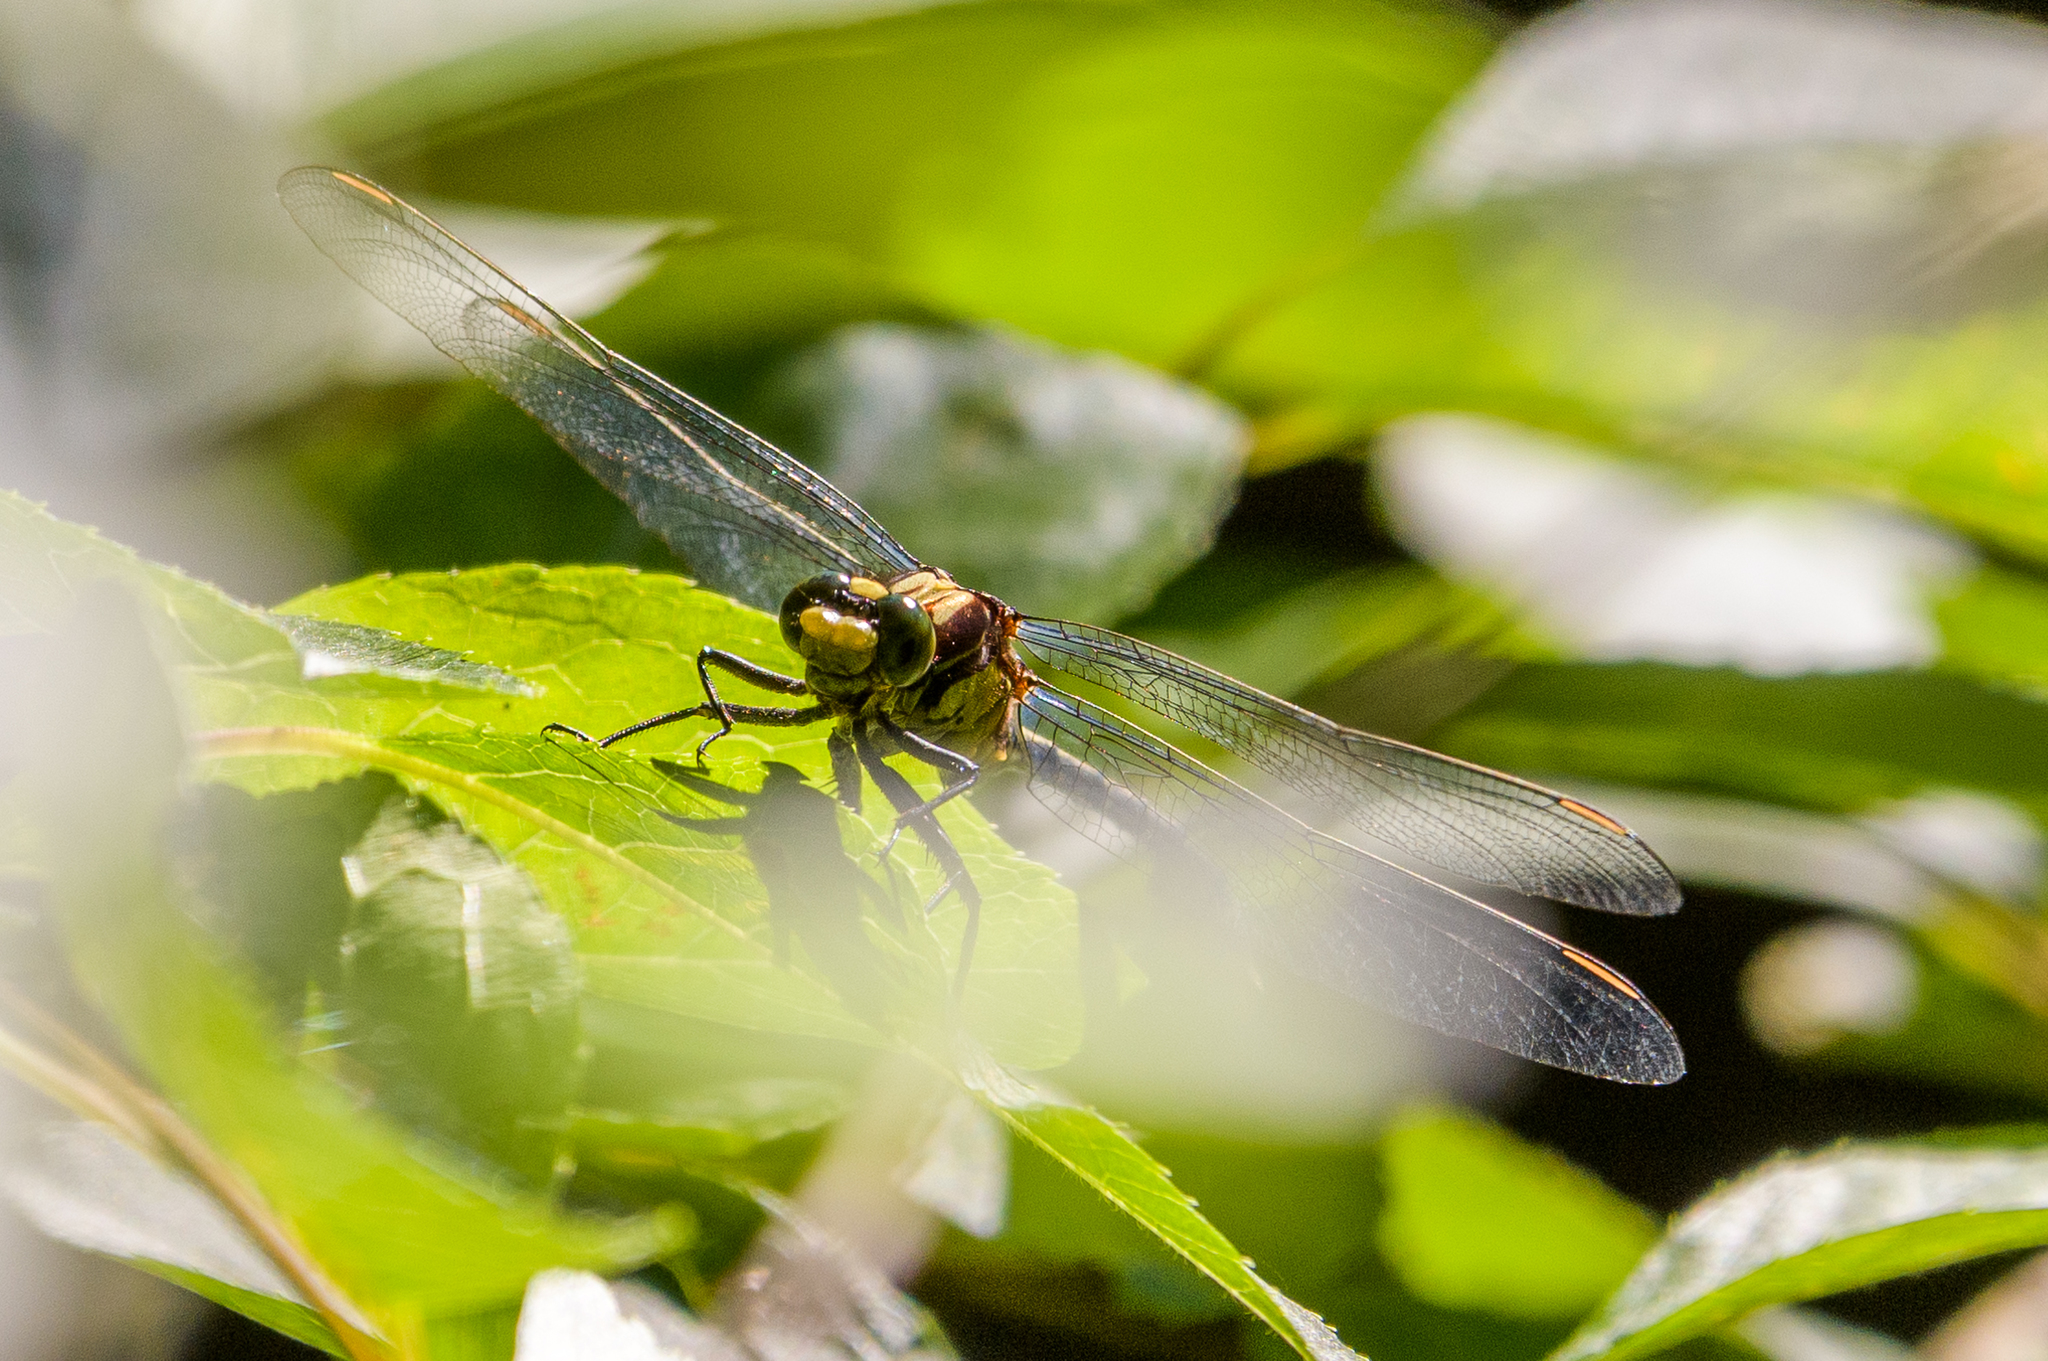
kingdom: Animalia
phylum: Arthropoda
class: Insecta
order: Odonata
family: Gomphidae
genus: Dromogomphus
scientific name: Dromogomphus spinosus
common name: Black-shouldered spinyleg
